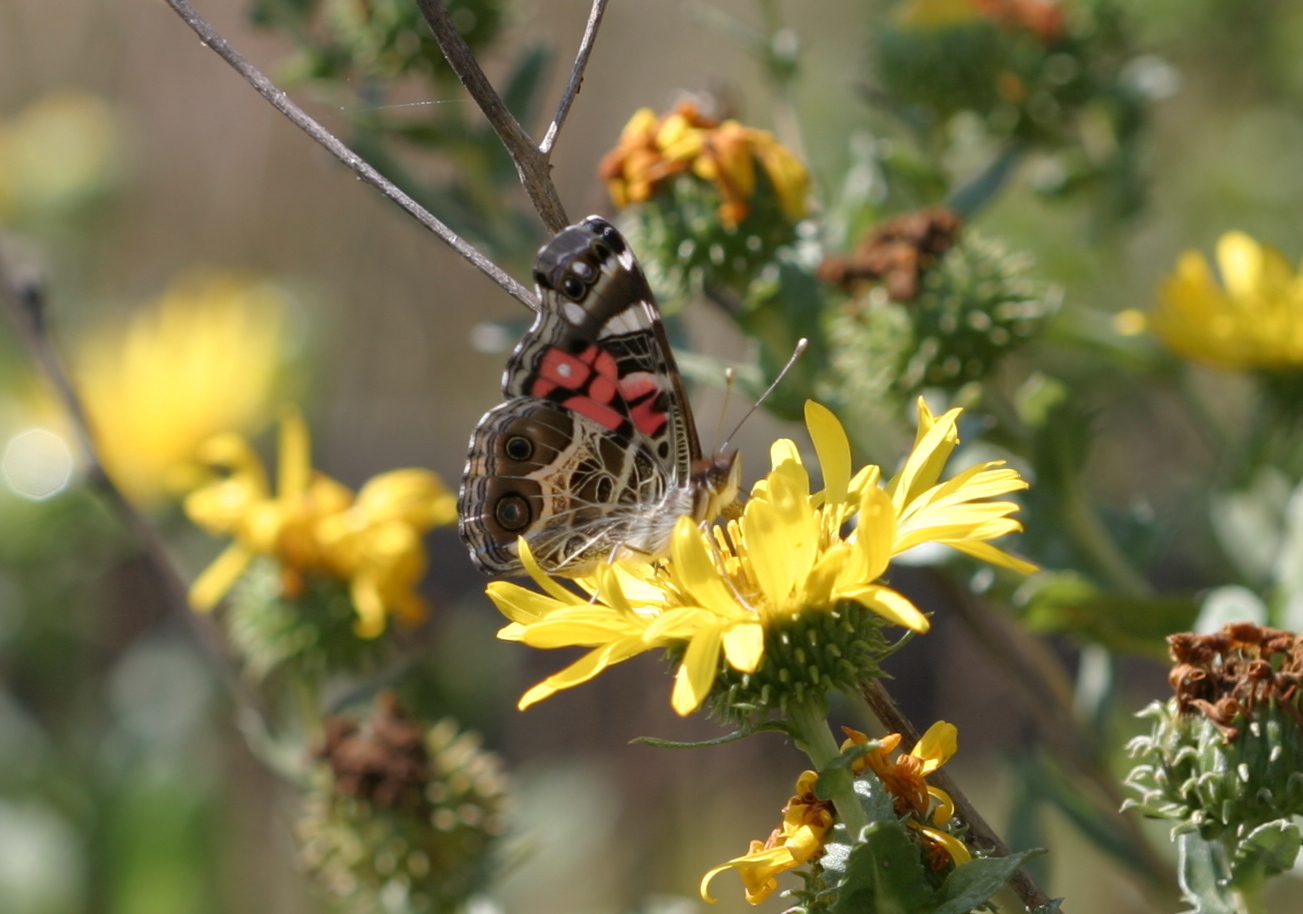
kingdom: Animalia
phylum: Arthropoda
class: Insecta
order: Lepidoptera
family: Nymphalidae
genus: Vanessa
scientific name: Vanessa virginiensis
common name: American lady
